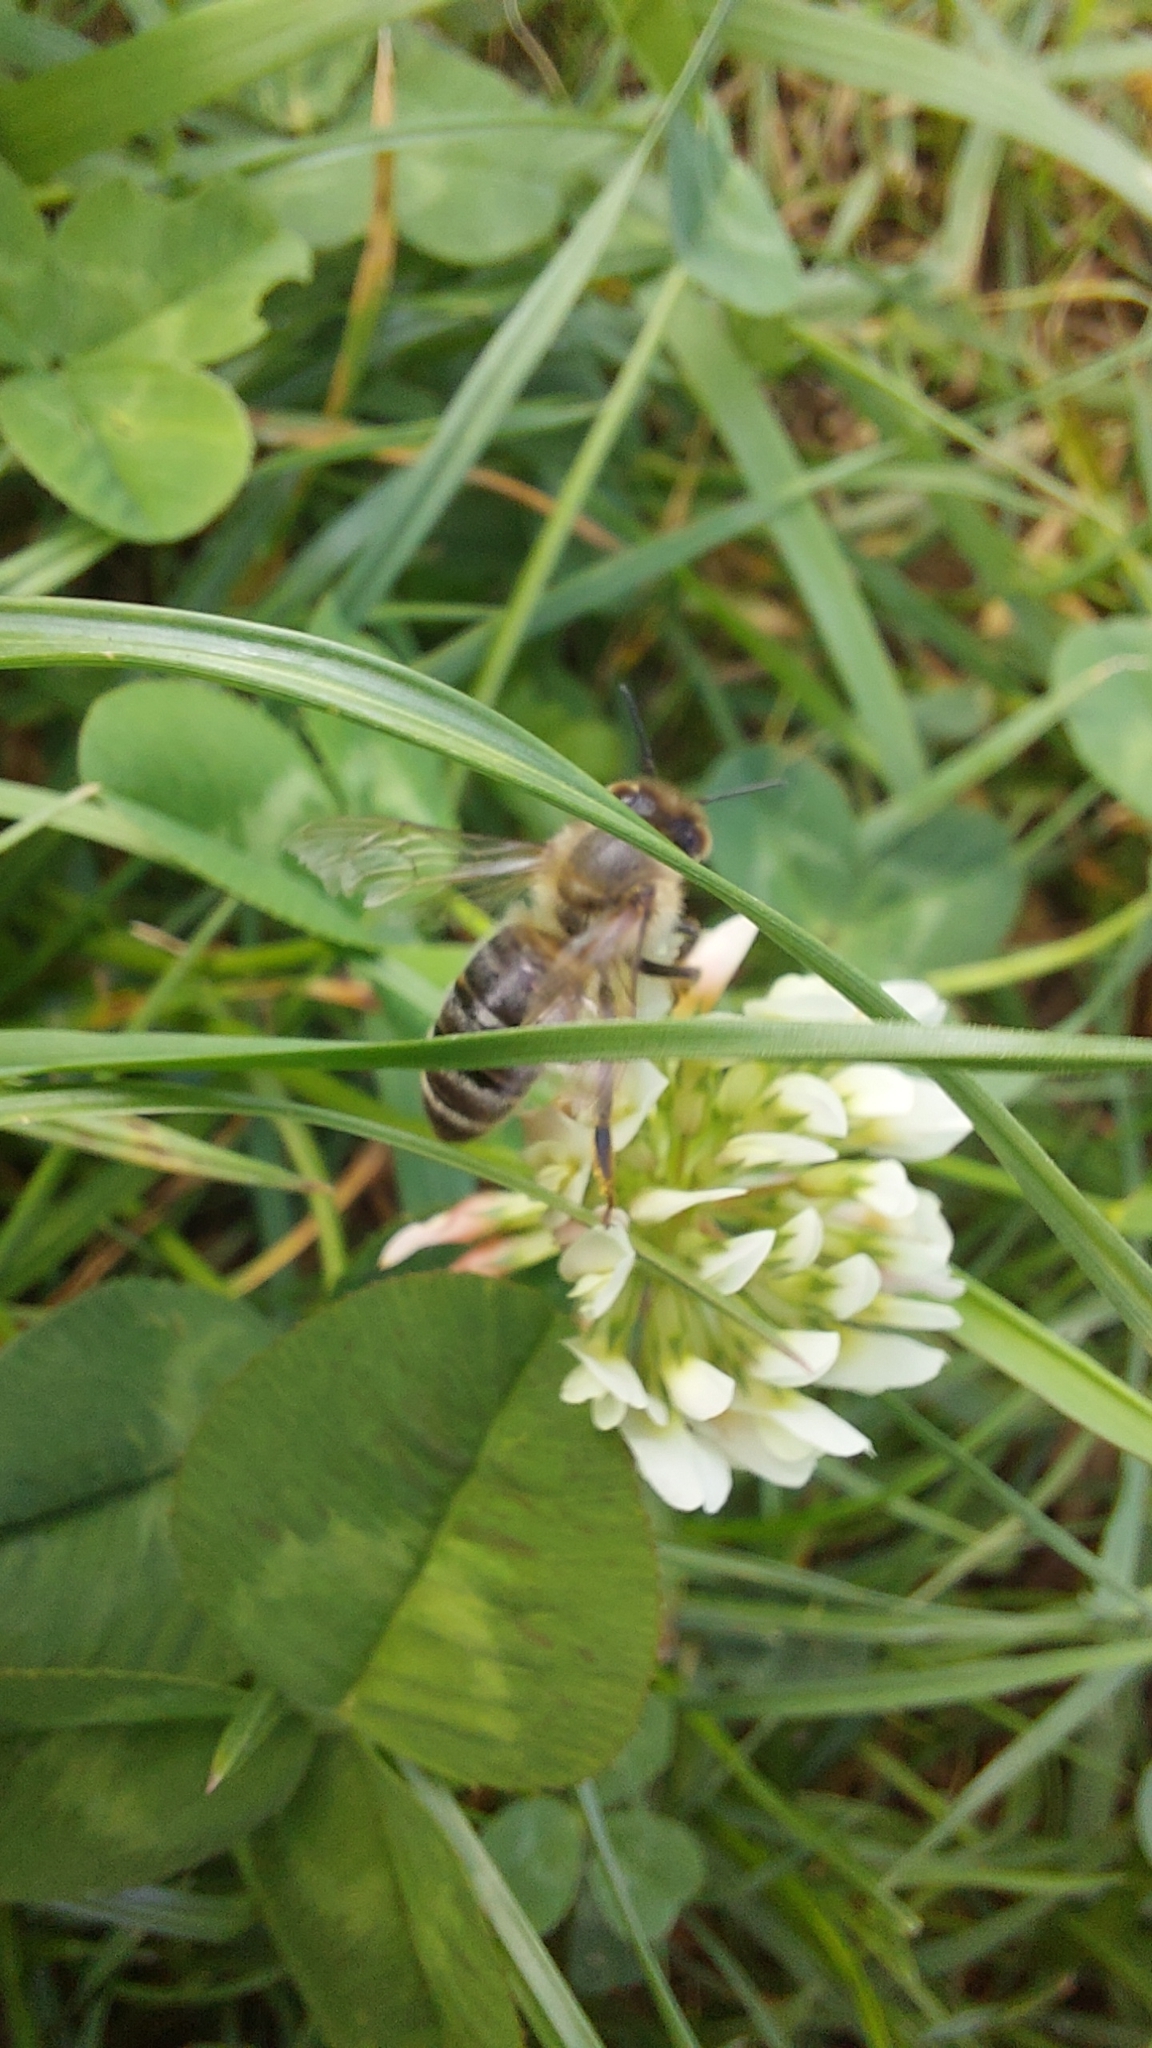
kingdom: Animalia
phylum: Arthropoda
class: Insecta
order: Hymenoptera
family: Apidae
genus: Apis
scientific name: Apis mellifera
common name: Honey bee
